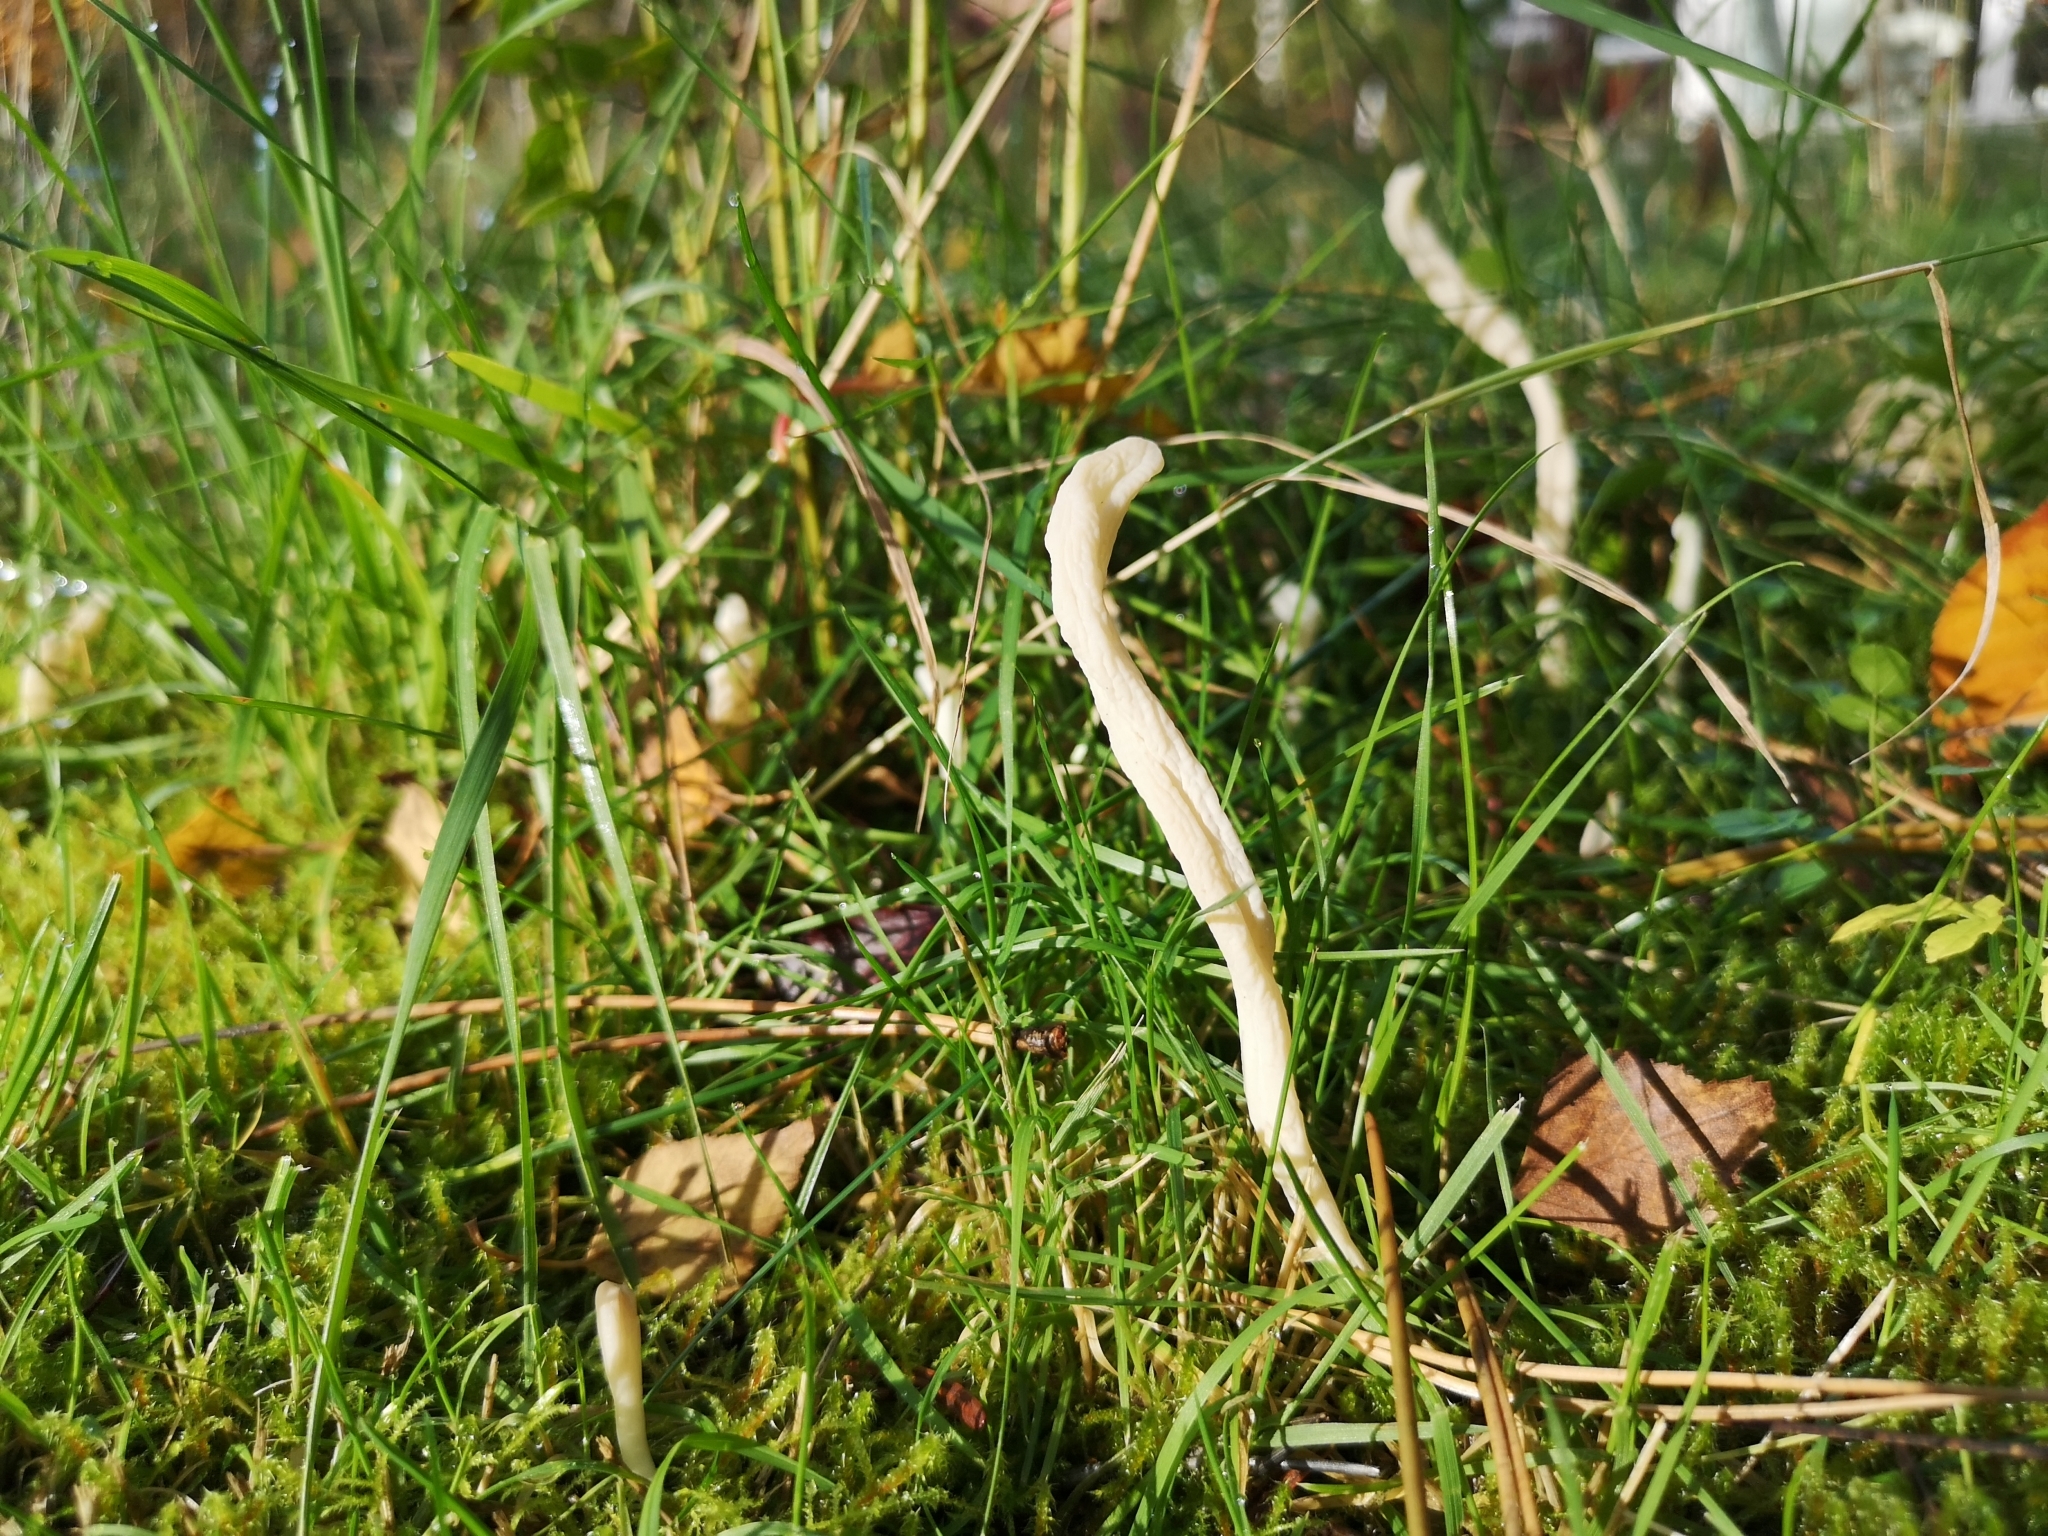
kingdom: Fungi
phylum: Basidiomycota
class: Agaricomycetes
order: Cantharellales
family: Hydnaceae
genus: Clavulina
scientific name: Clavulina rugosa
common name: Wrinkled club
